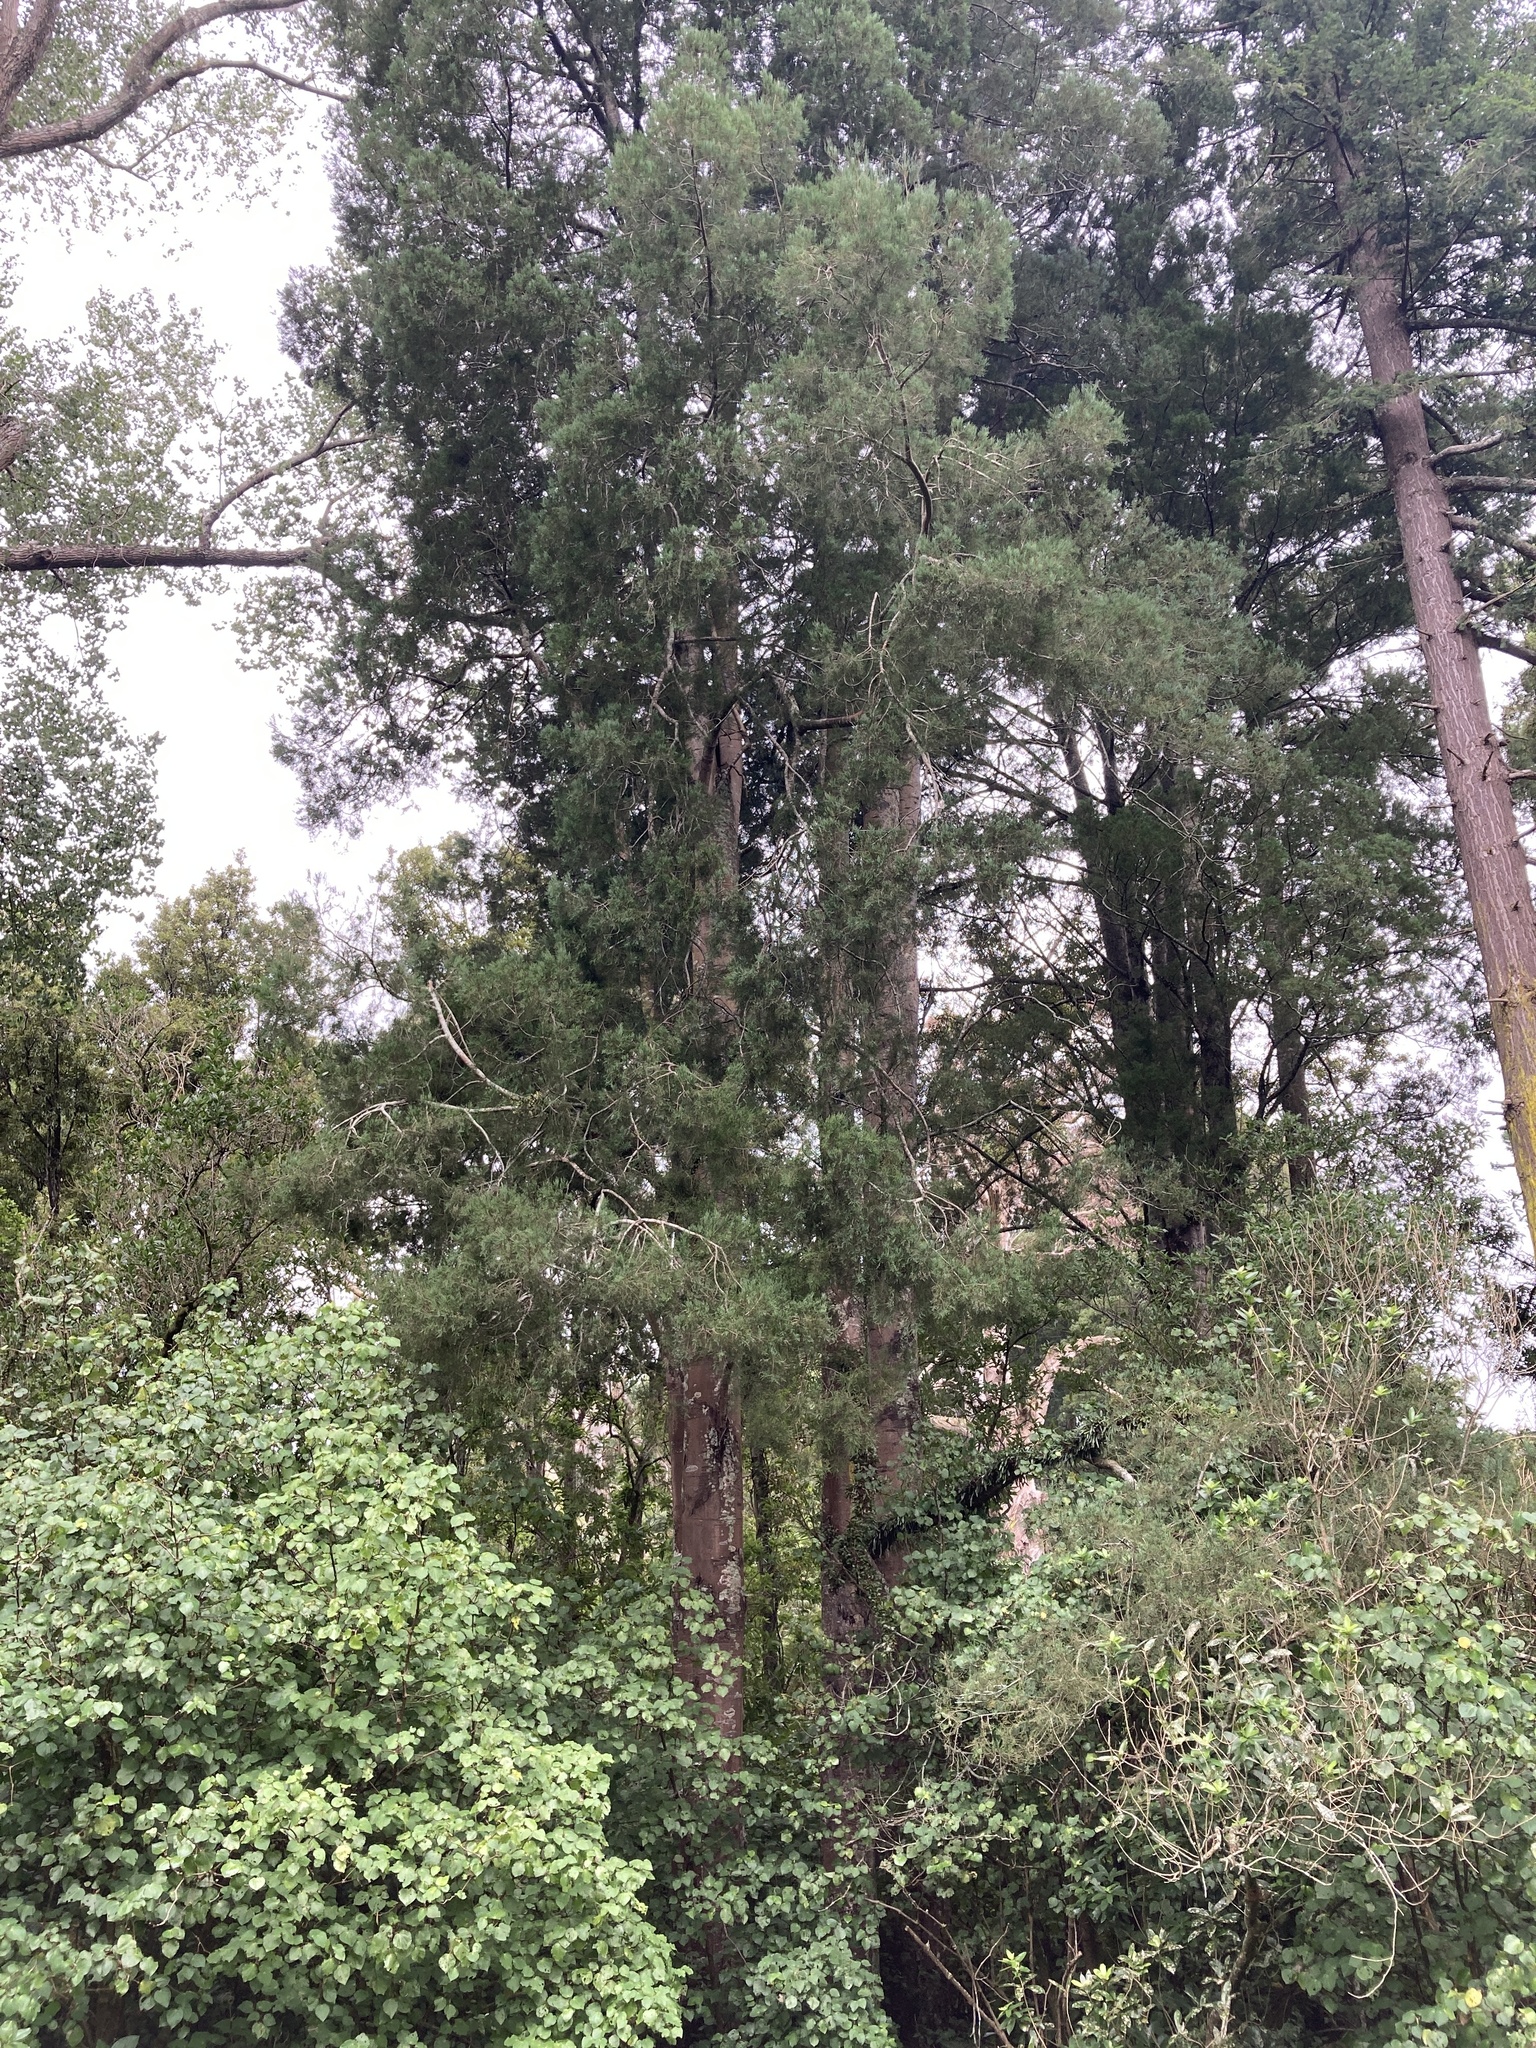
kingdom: Plantae
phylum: Tracheophyta
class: Pinopsida
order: Pinales
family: Podocarpaceae
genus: Dacrycarpus
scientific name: Dacrycarpus dacrydioides
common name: White pine
